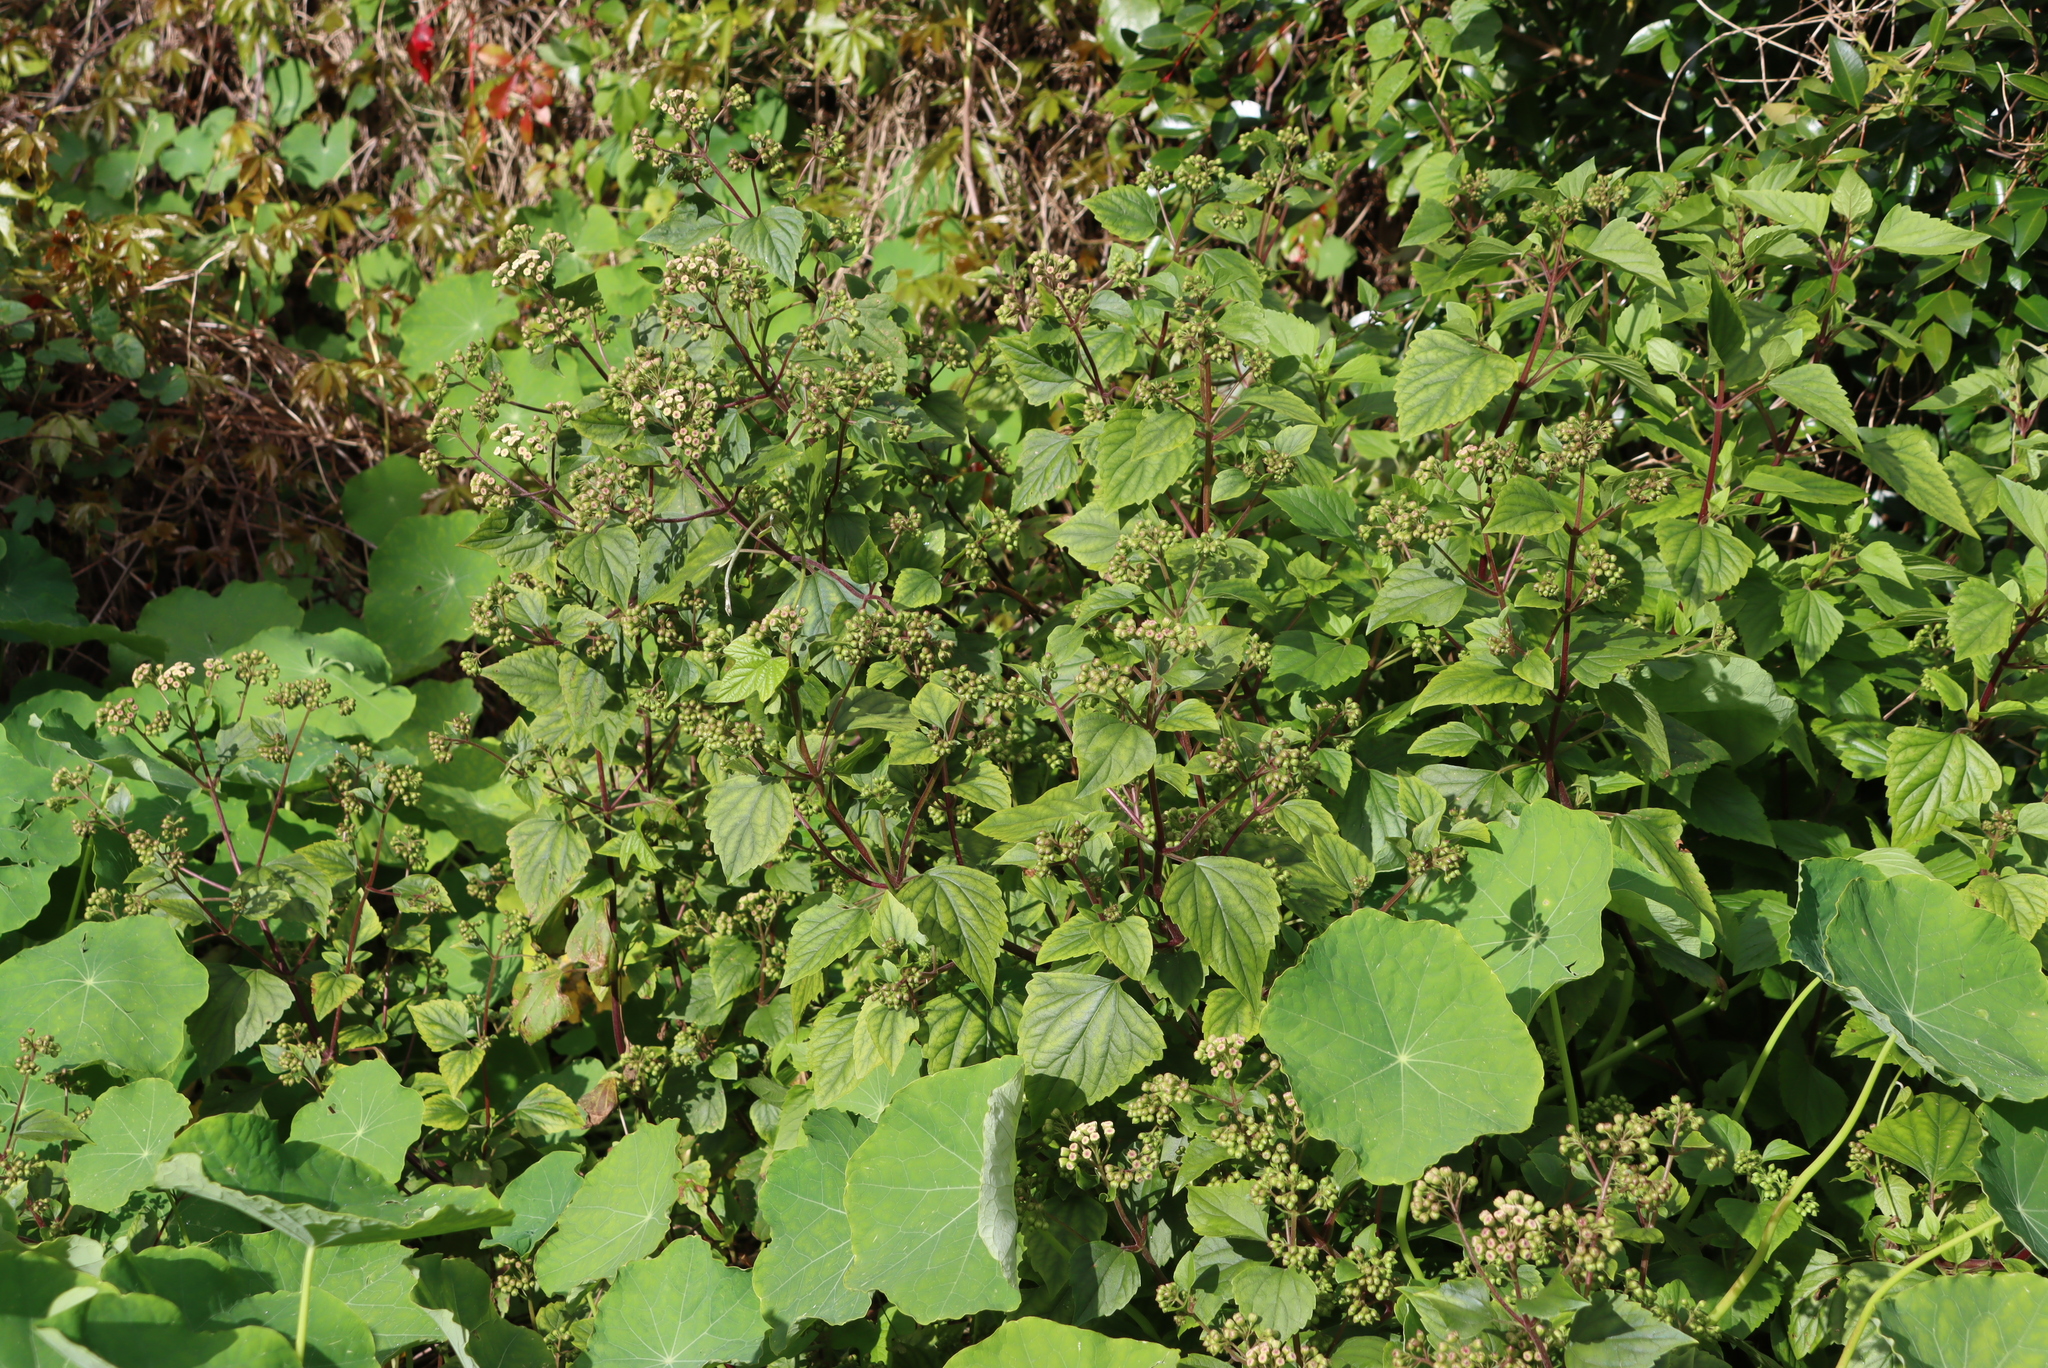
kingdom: Plantae
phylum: Tracheophyta
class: Magnoliopsida
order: Asterales
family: Asteraceae
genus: Ageratina
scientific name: Ageratina adenophora
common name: Sticky snakeroot
